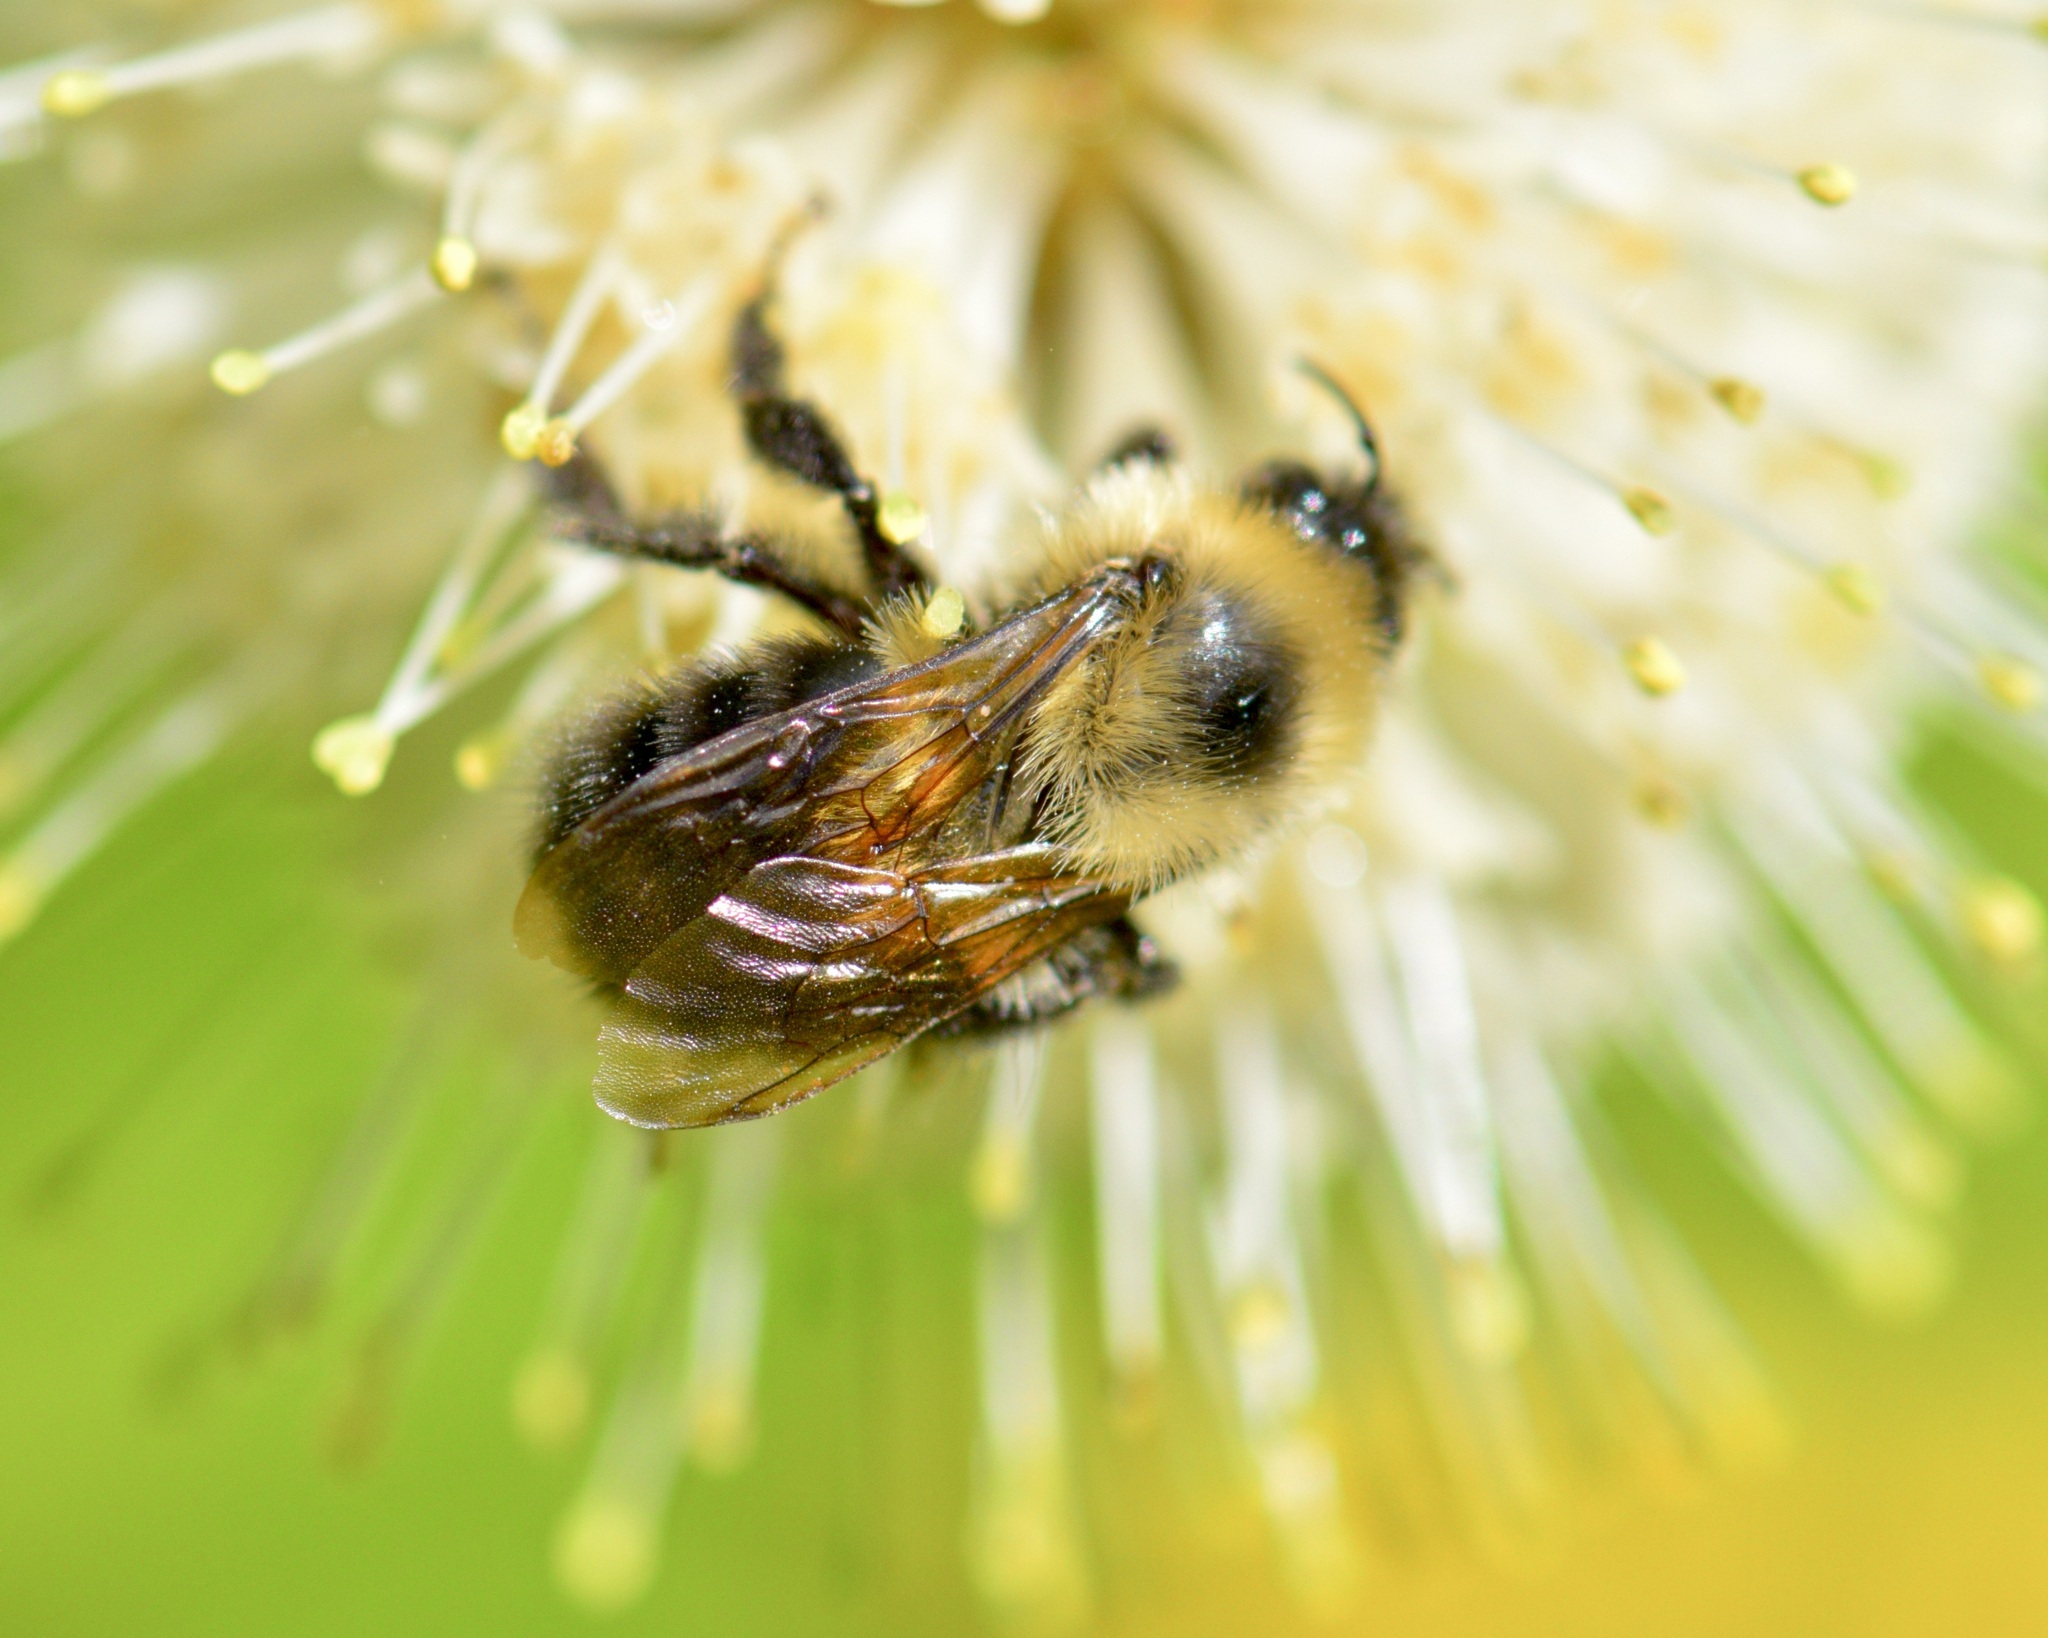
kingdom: Animalia
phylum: Arthropoda
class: Insecta
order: Hymenoptera
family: Apidae
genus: Bombus
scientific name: Bombus bimaculatus
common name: Two-spotted bumble bee
